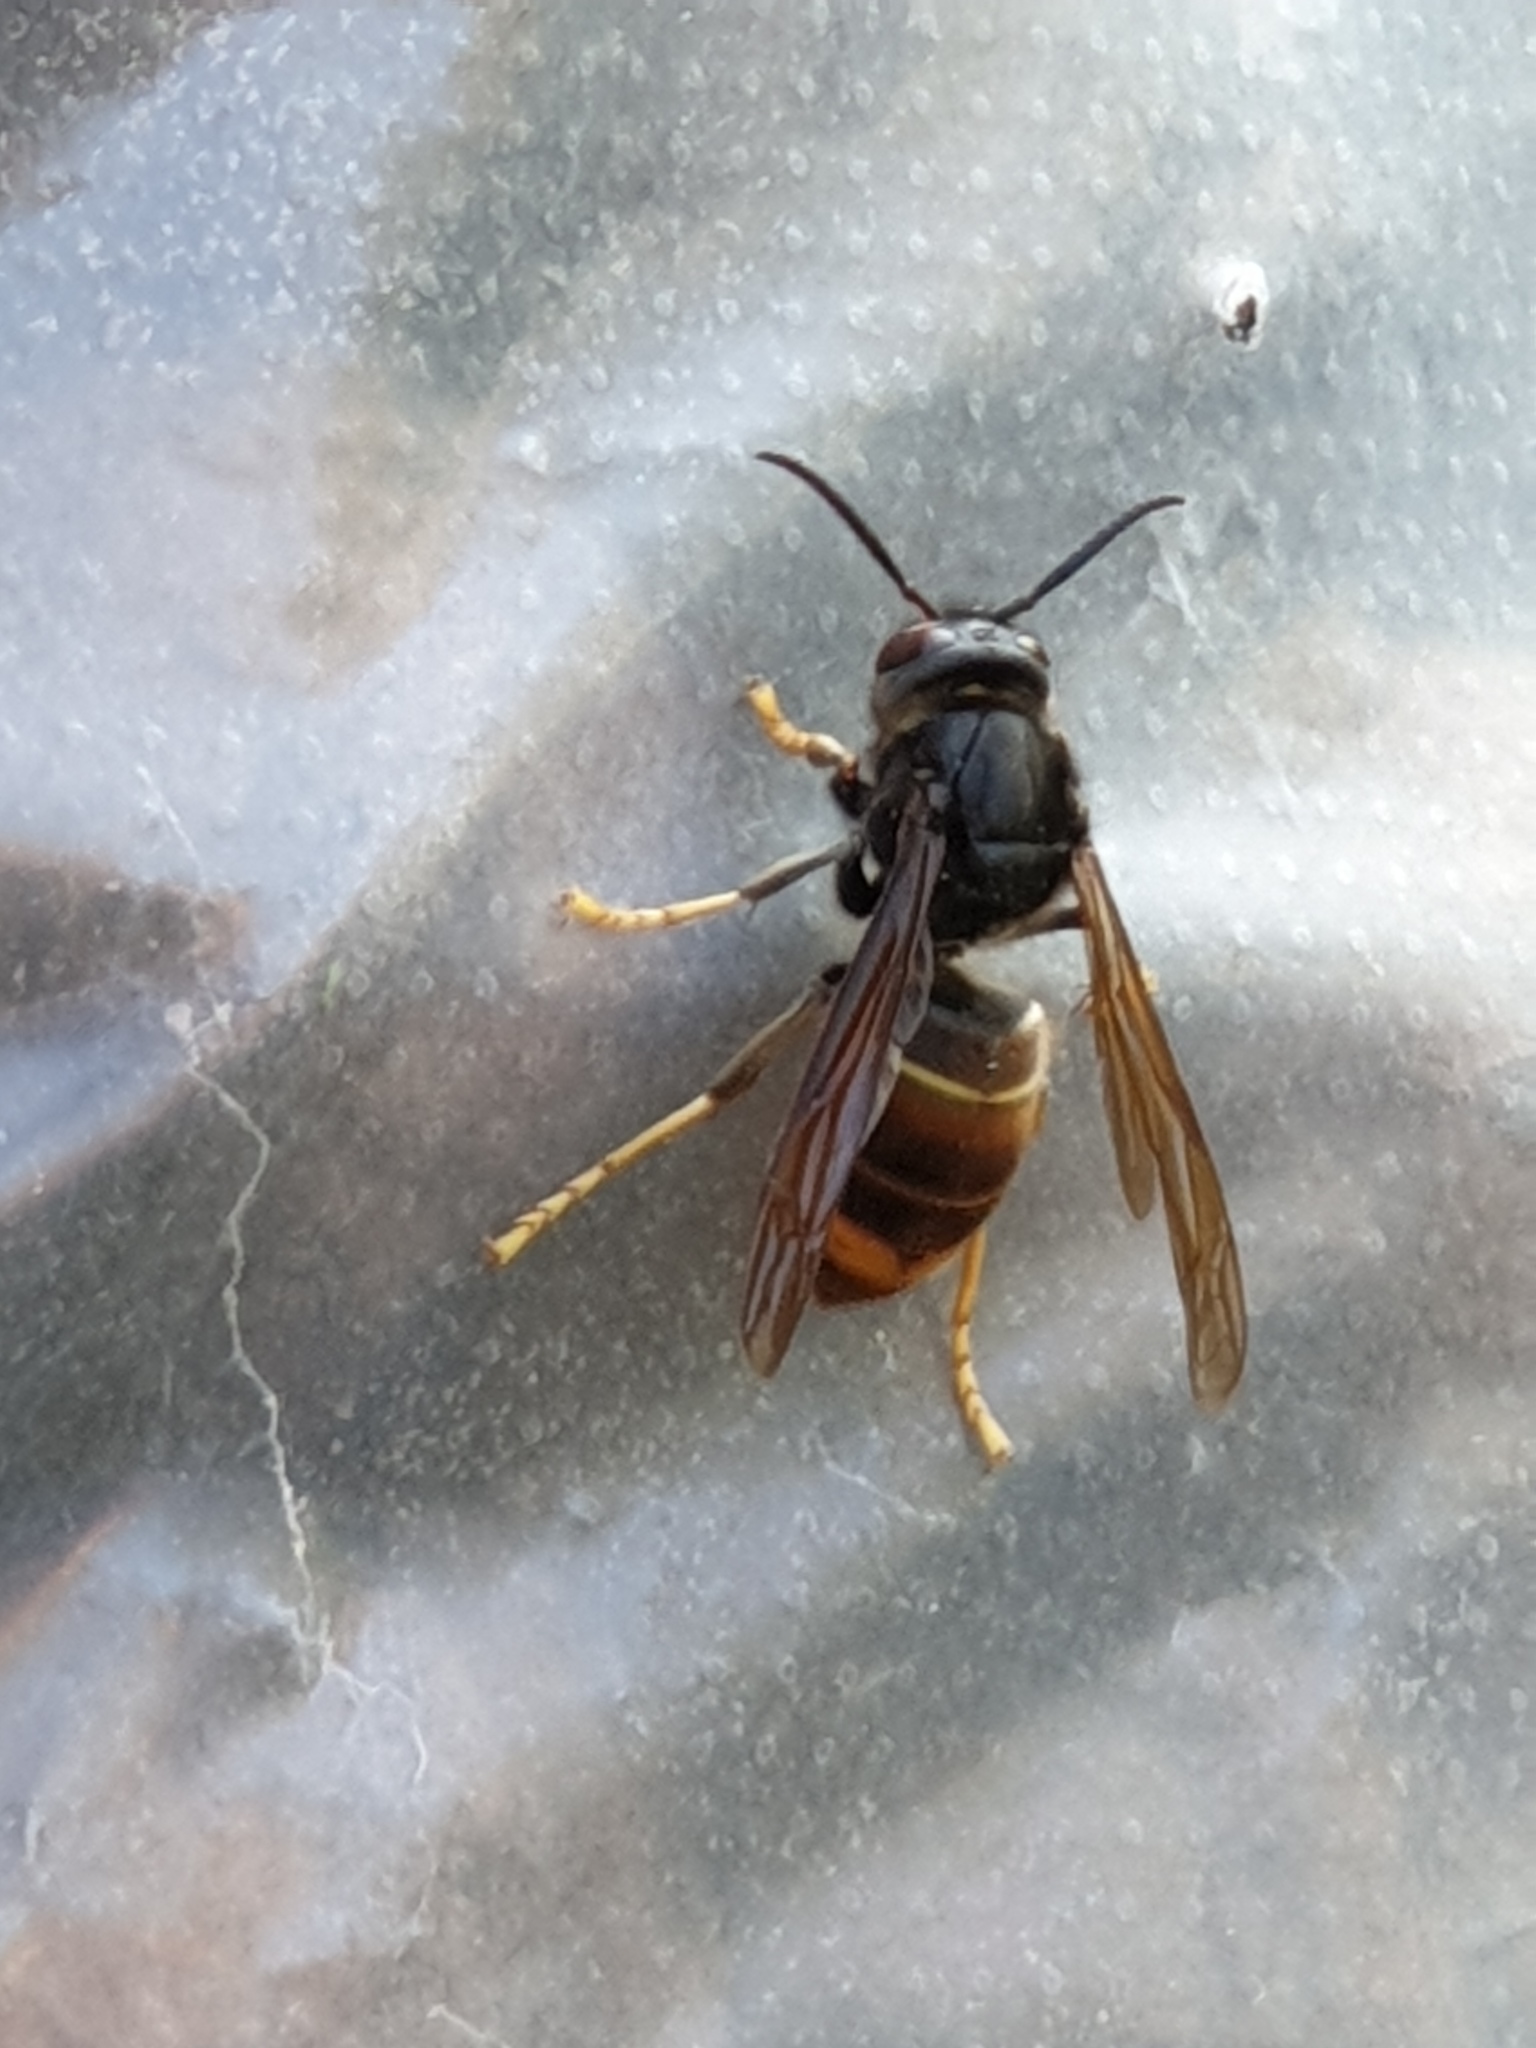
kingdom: Animalia
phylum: Arthropoda
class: Insecta
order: Hymenoptera
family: Vespidae
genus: Vespa
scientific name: Vespa velutina
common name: Asian hornet
